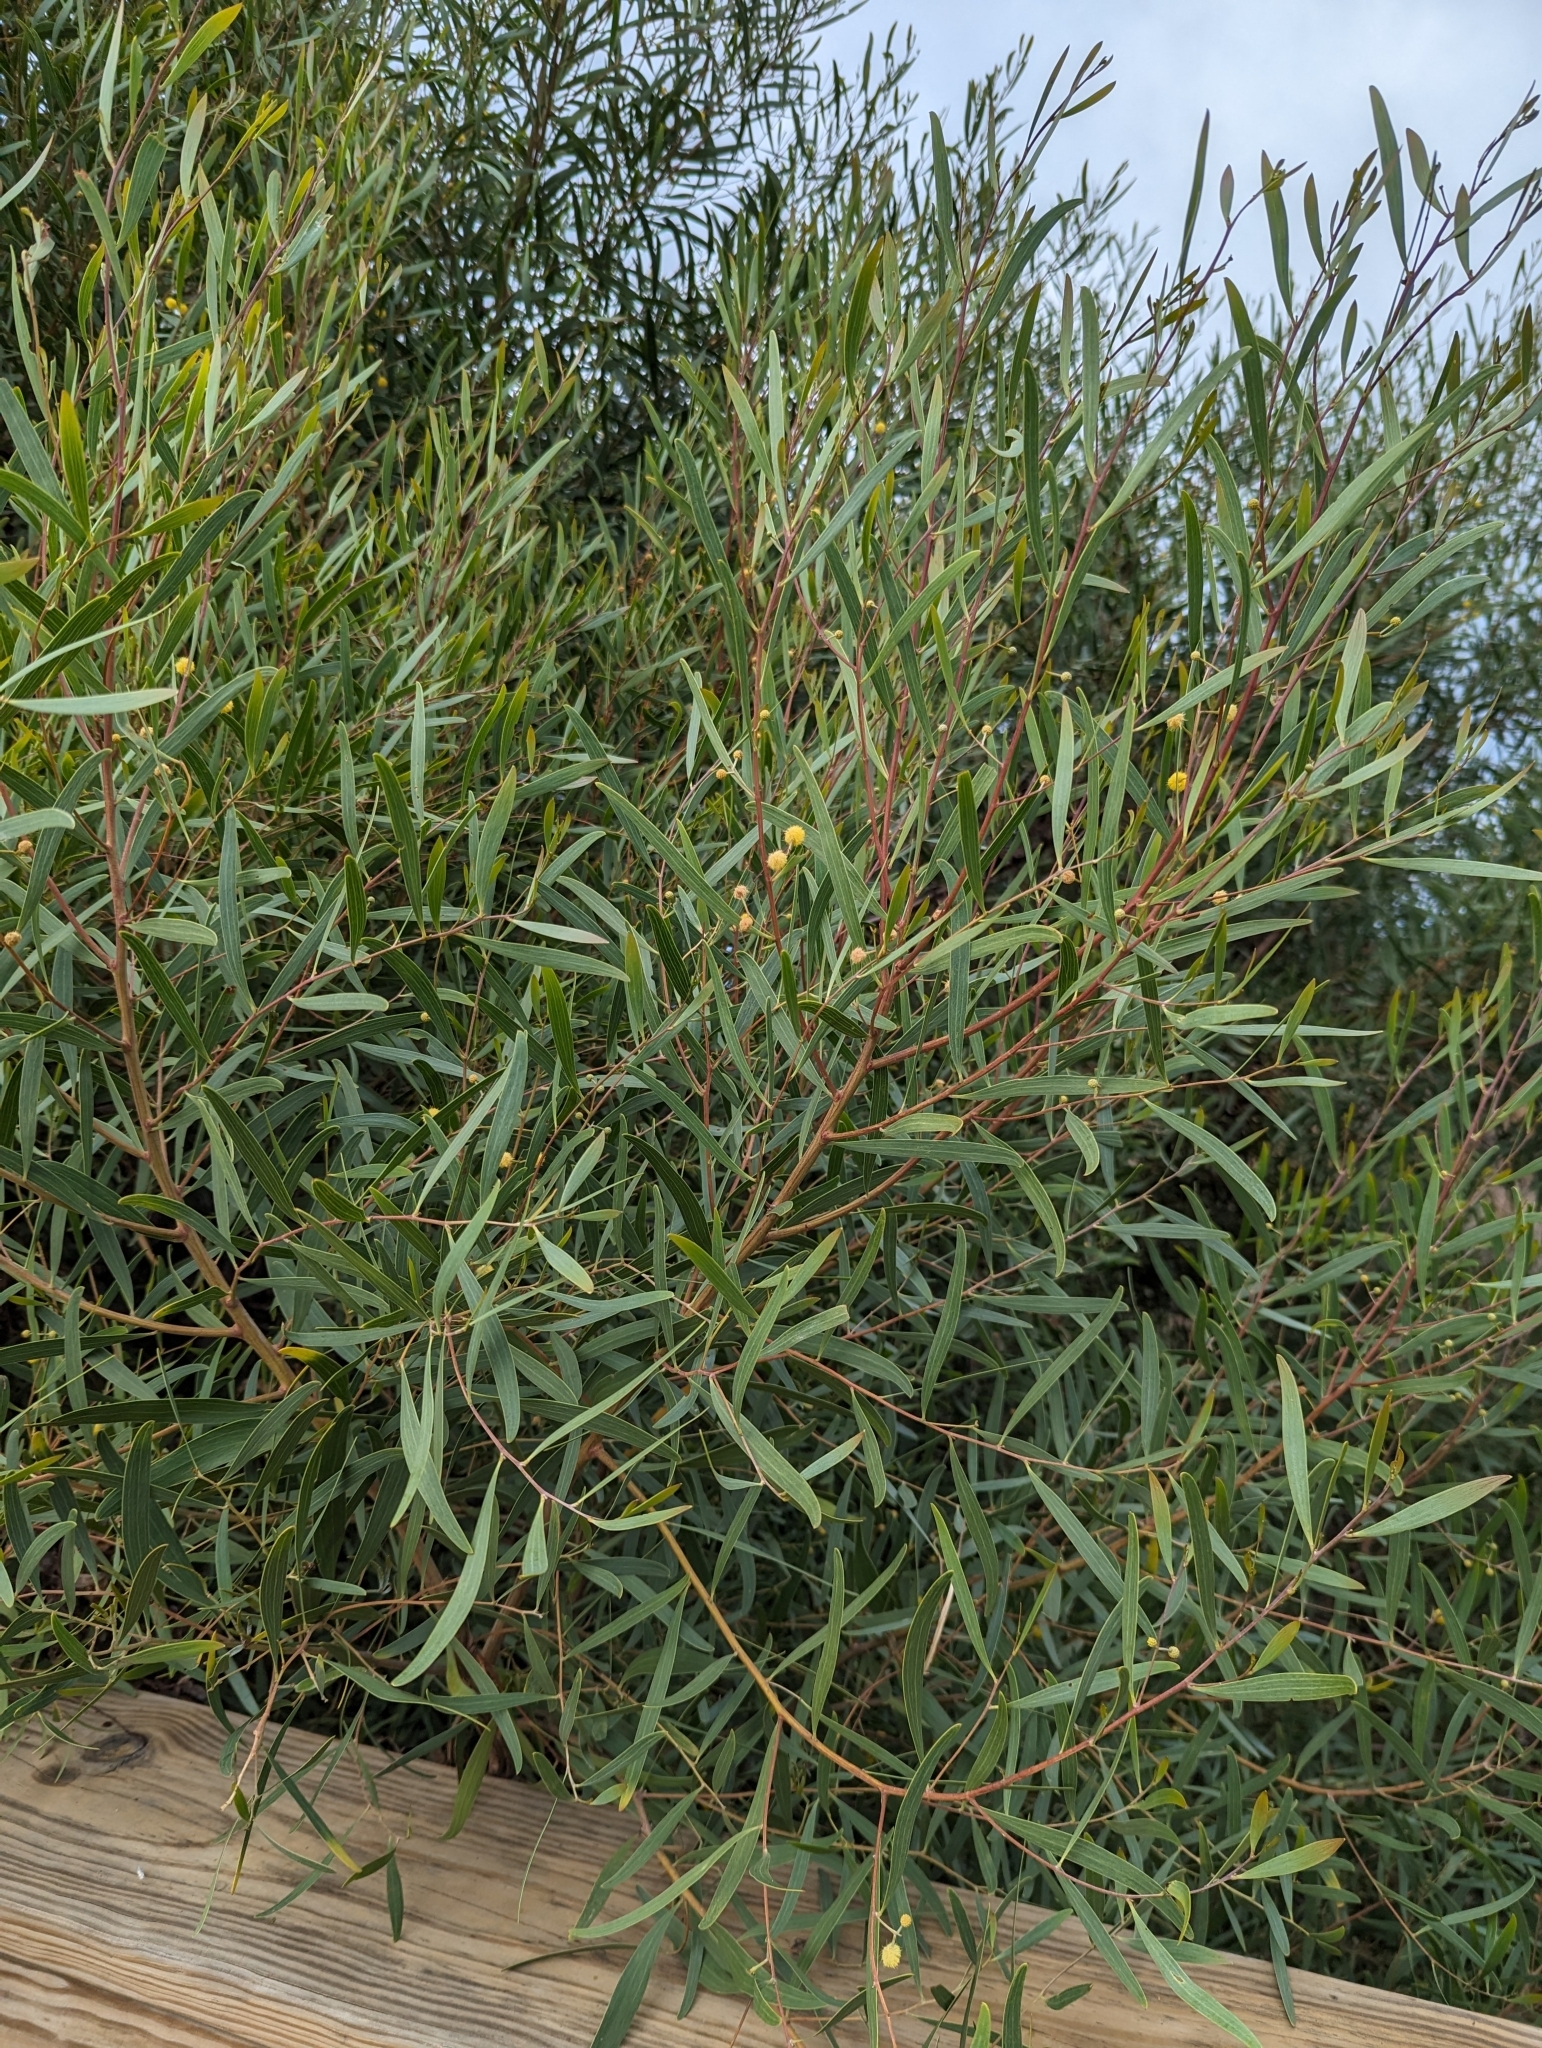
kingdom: Plantae
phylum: Tracheophyta
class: Magnoliopsida
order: Fabales
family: Fabaceae
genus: Acacia
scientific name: Acacia cyclops
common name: Coastal wattle
